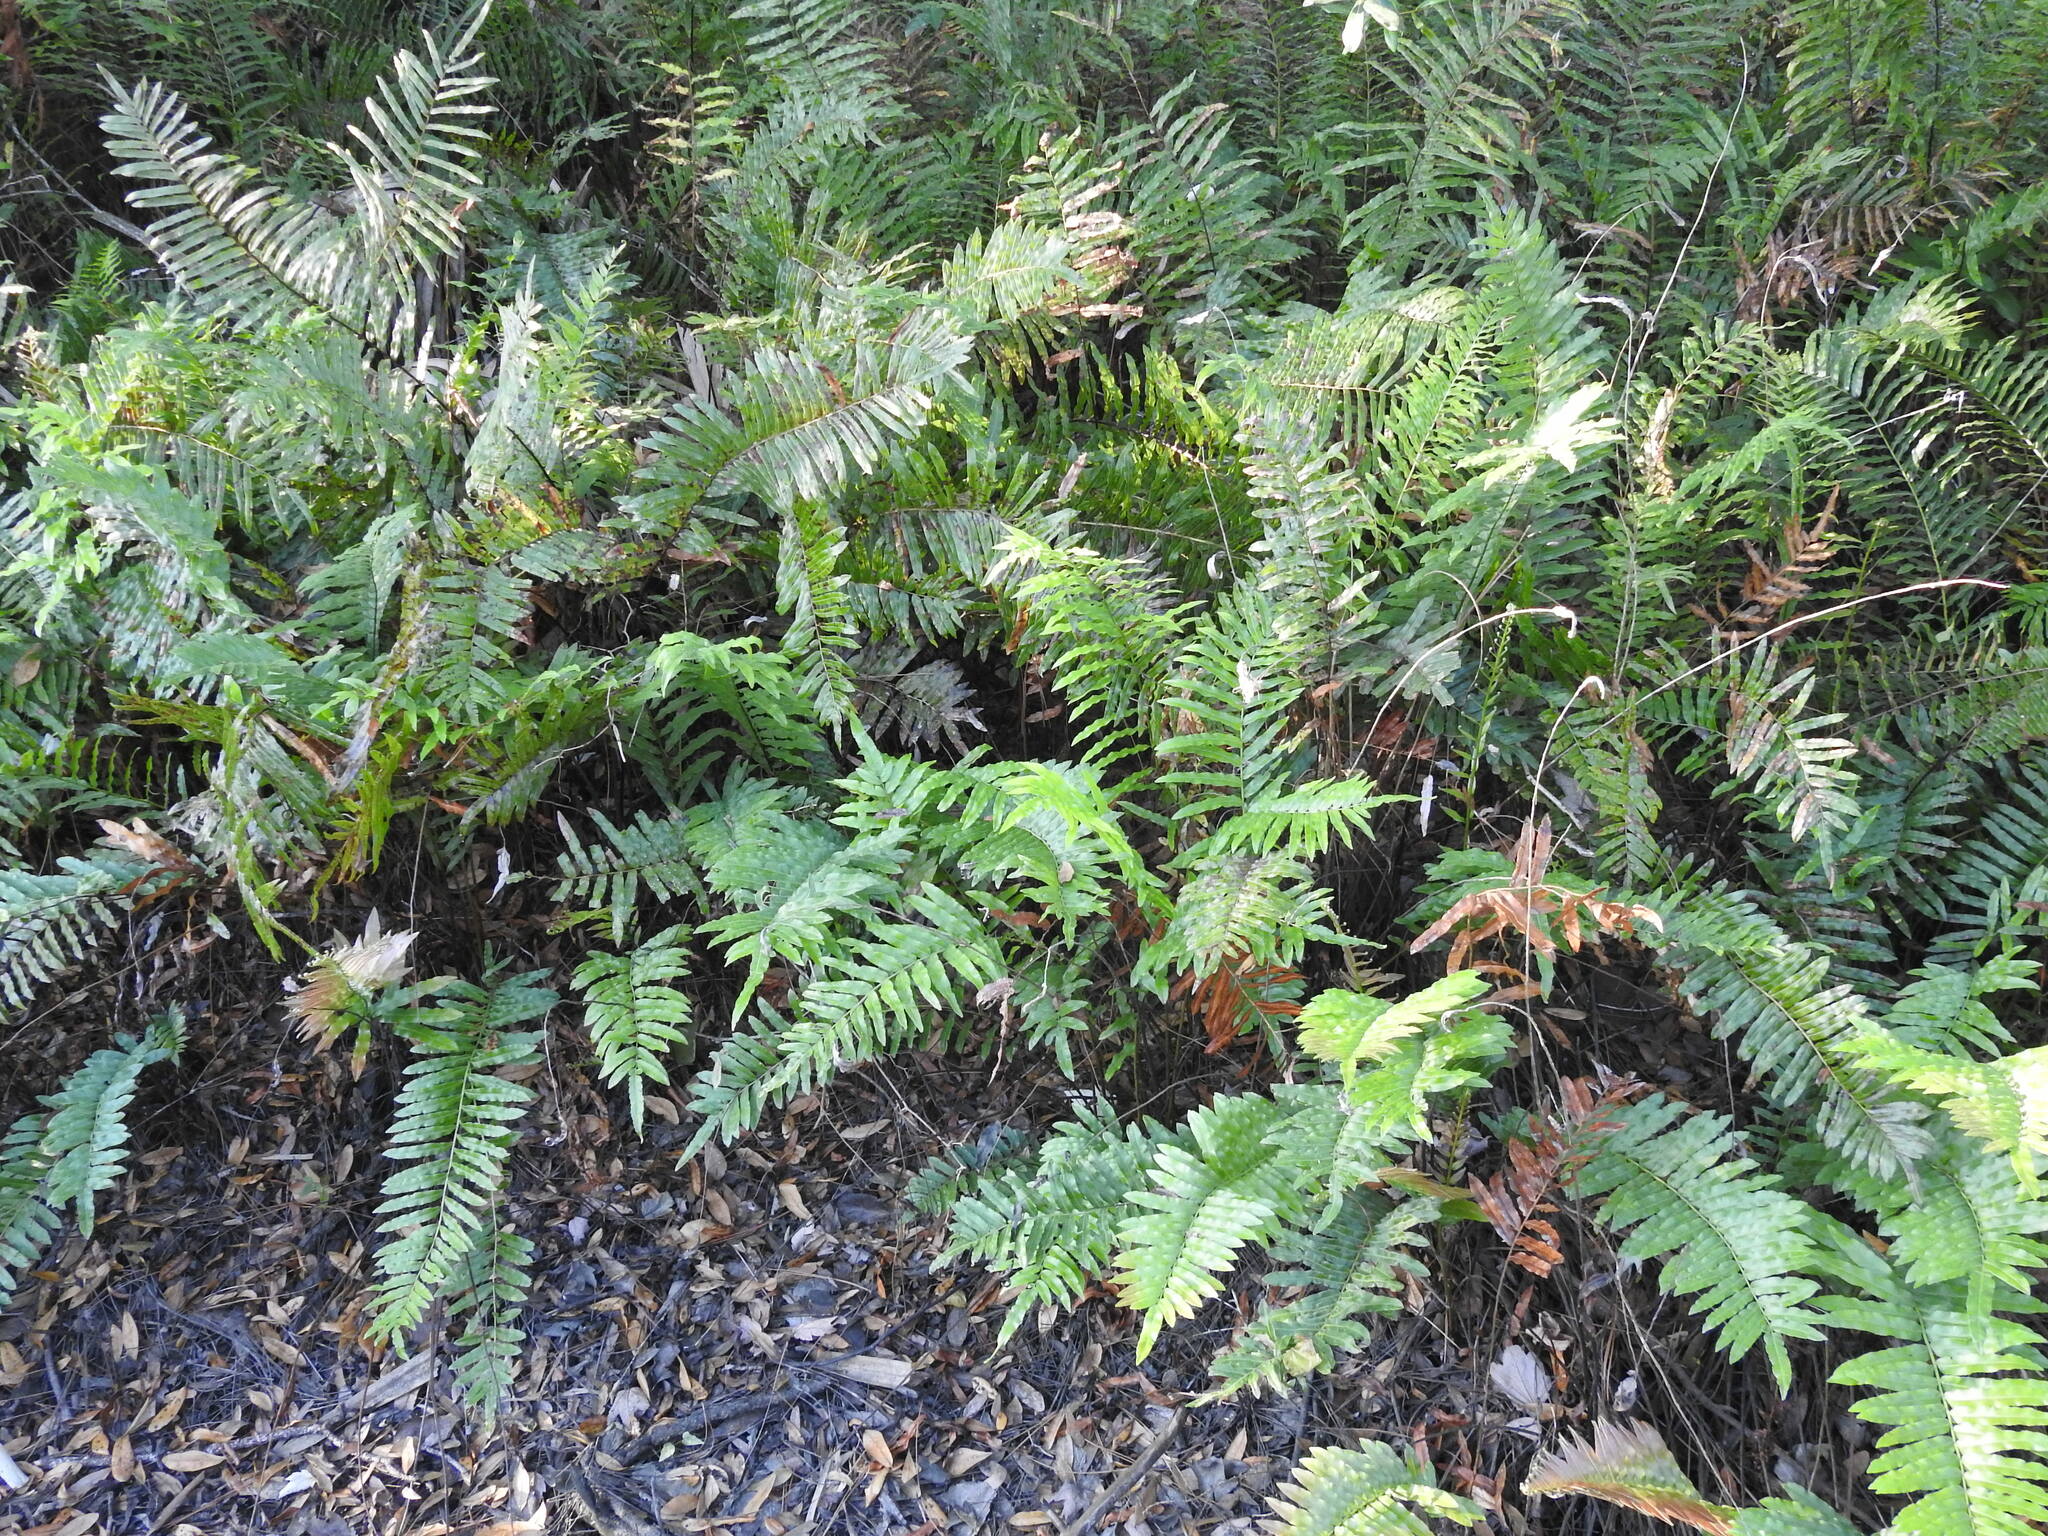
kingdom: Plantae
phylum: Tracheophyta
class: Polypodiopsida
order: Polypodiales
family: Blechnaceae
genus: Telmatoblechnum
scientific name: Telmatoblechnum serrulatum
